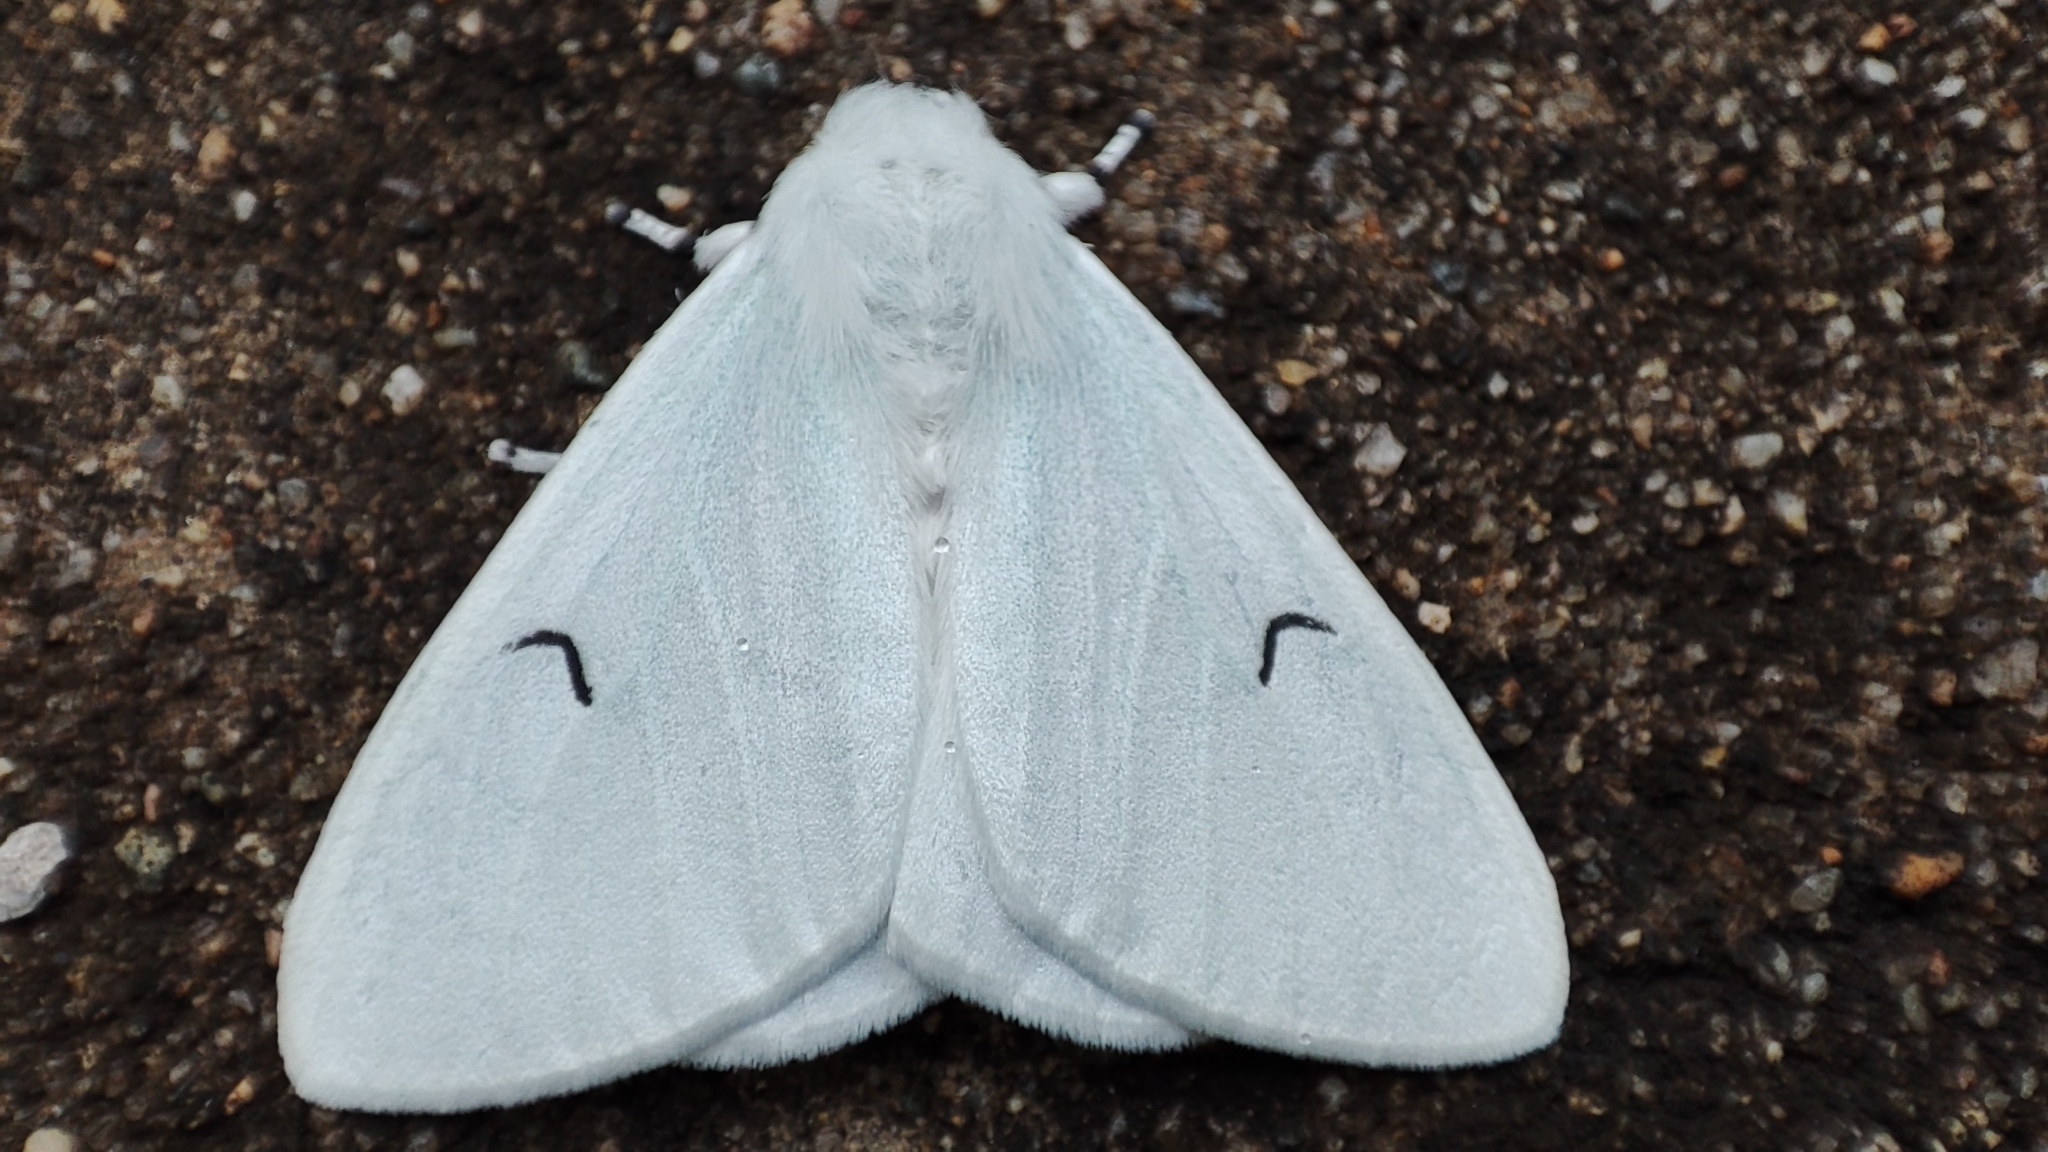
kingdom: Animalia
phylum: Arthropoda
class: Insecta
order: Lepidoptera
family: Erebidae
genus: Arctornis
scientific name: Arctornis l-nigrum
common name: Black v moth
